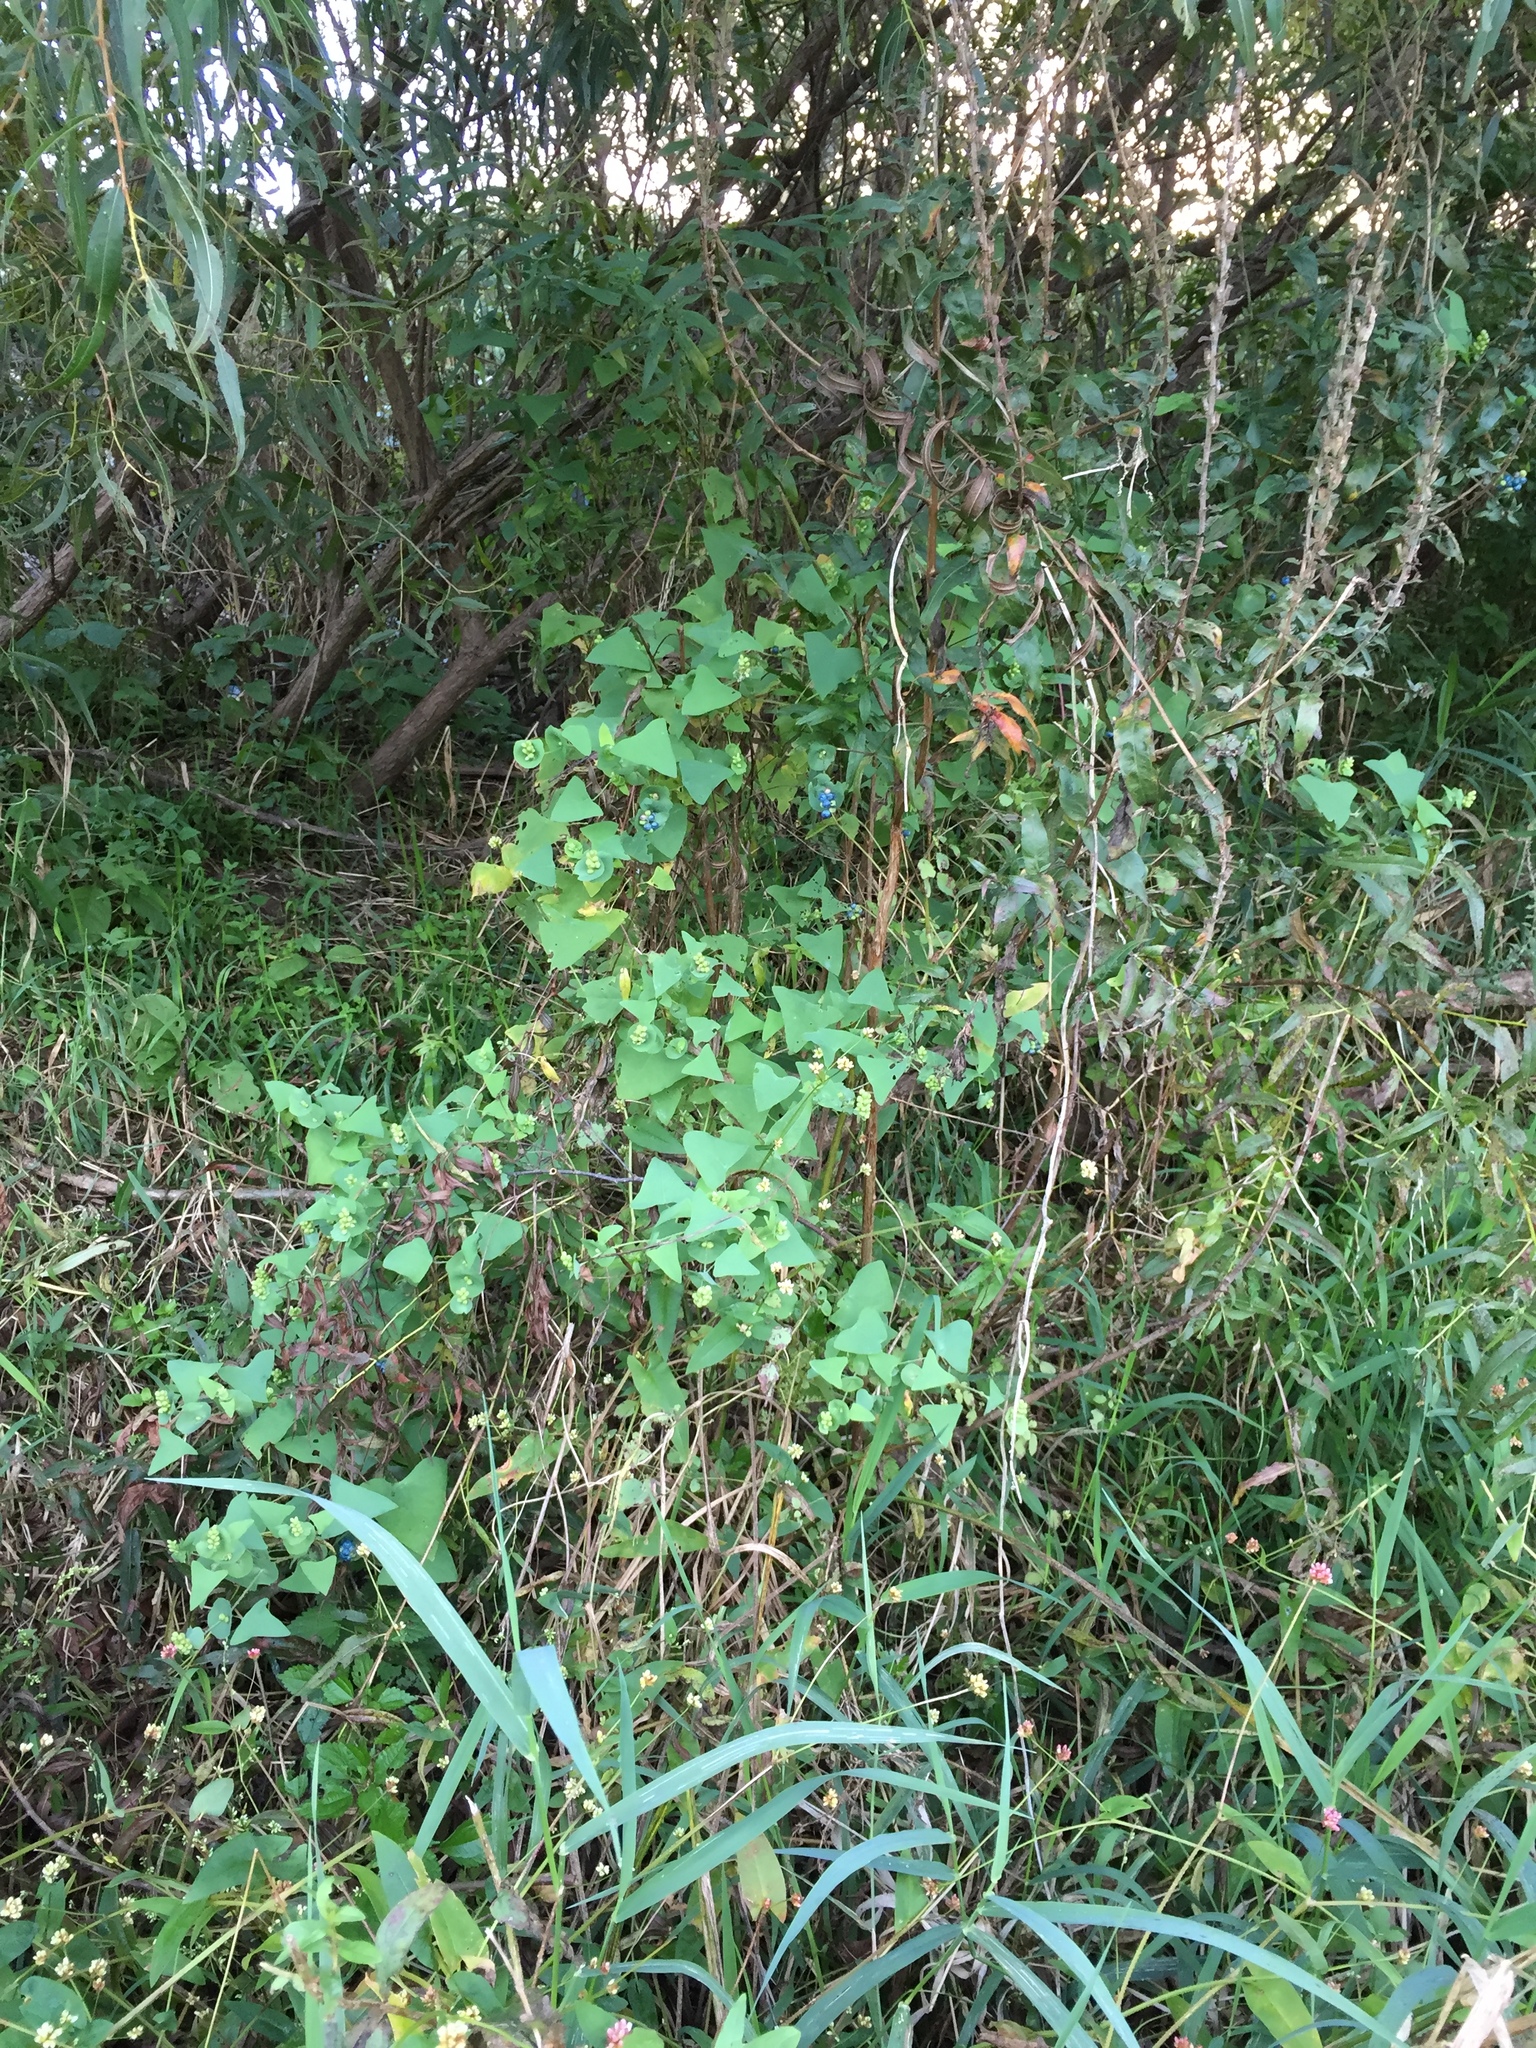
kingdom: Plantae
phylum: Tracheophyta
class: Magnoliopsida
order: Caryophyllales
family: Polygonaceae
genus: Persicaria
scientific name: Persicaria perfoliata
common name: Asiatic tearthumb
